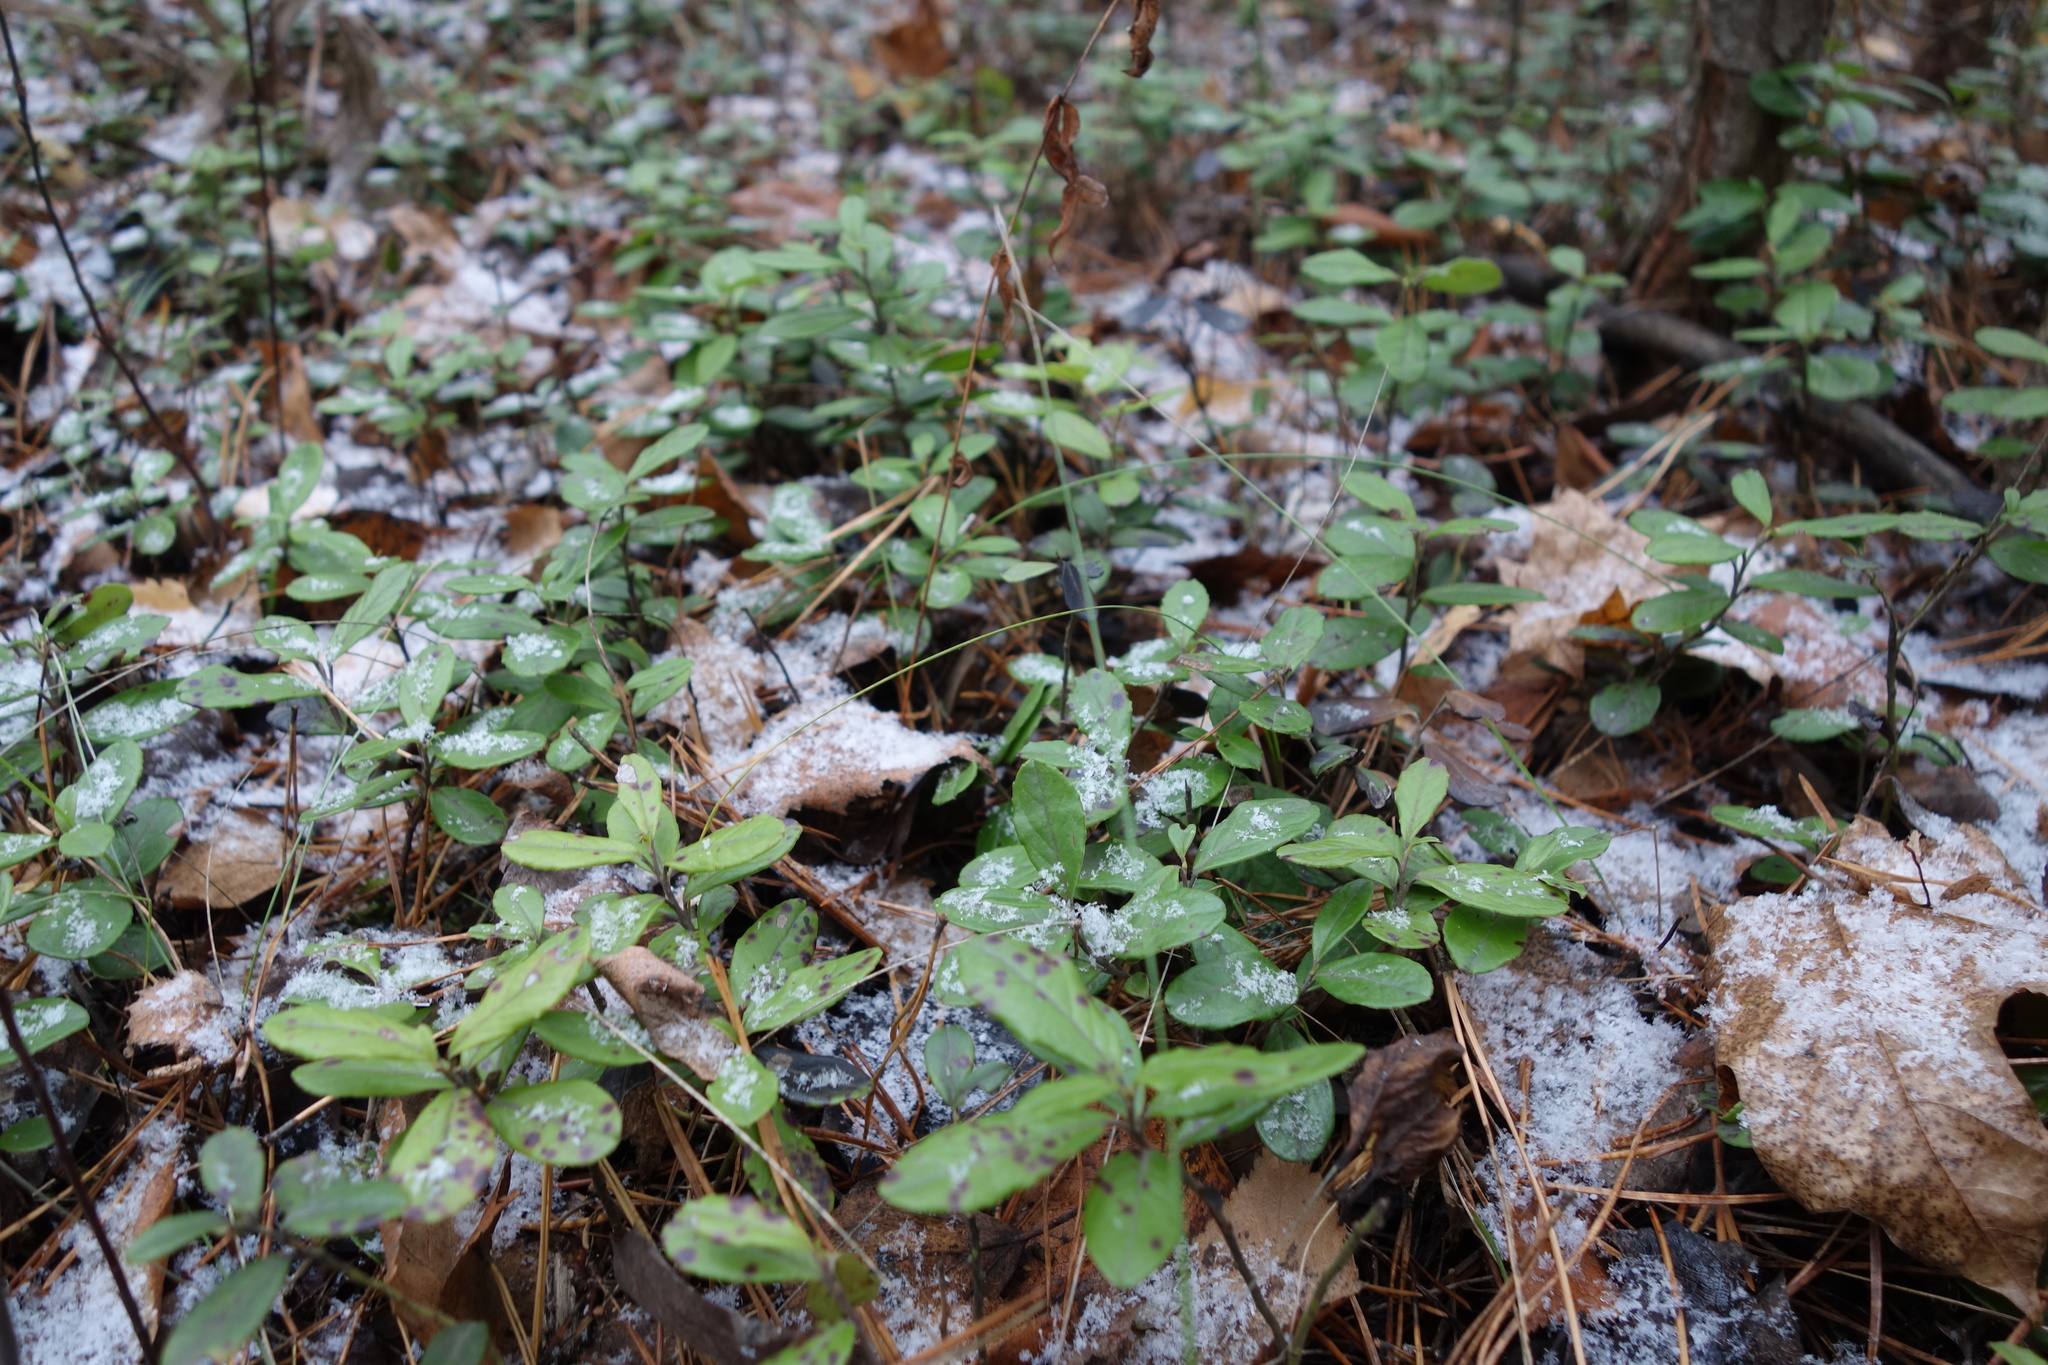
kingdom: Plantae
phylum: Tracheophyta
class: Magnoliopsida
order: Ericales
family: Ericaceae
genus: Vaccinium
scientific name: Vaccinium vitis-idaea
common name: Cowberry
